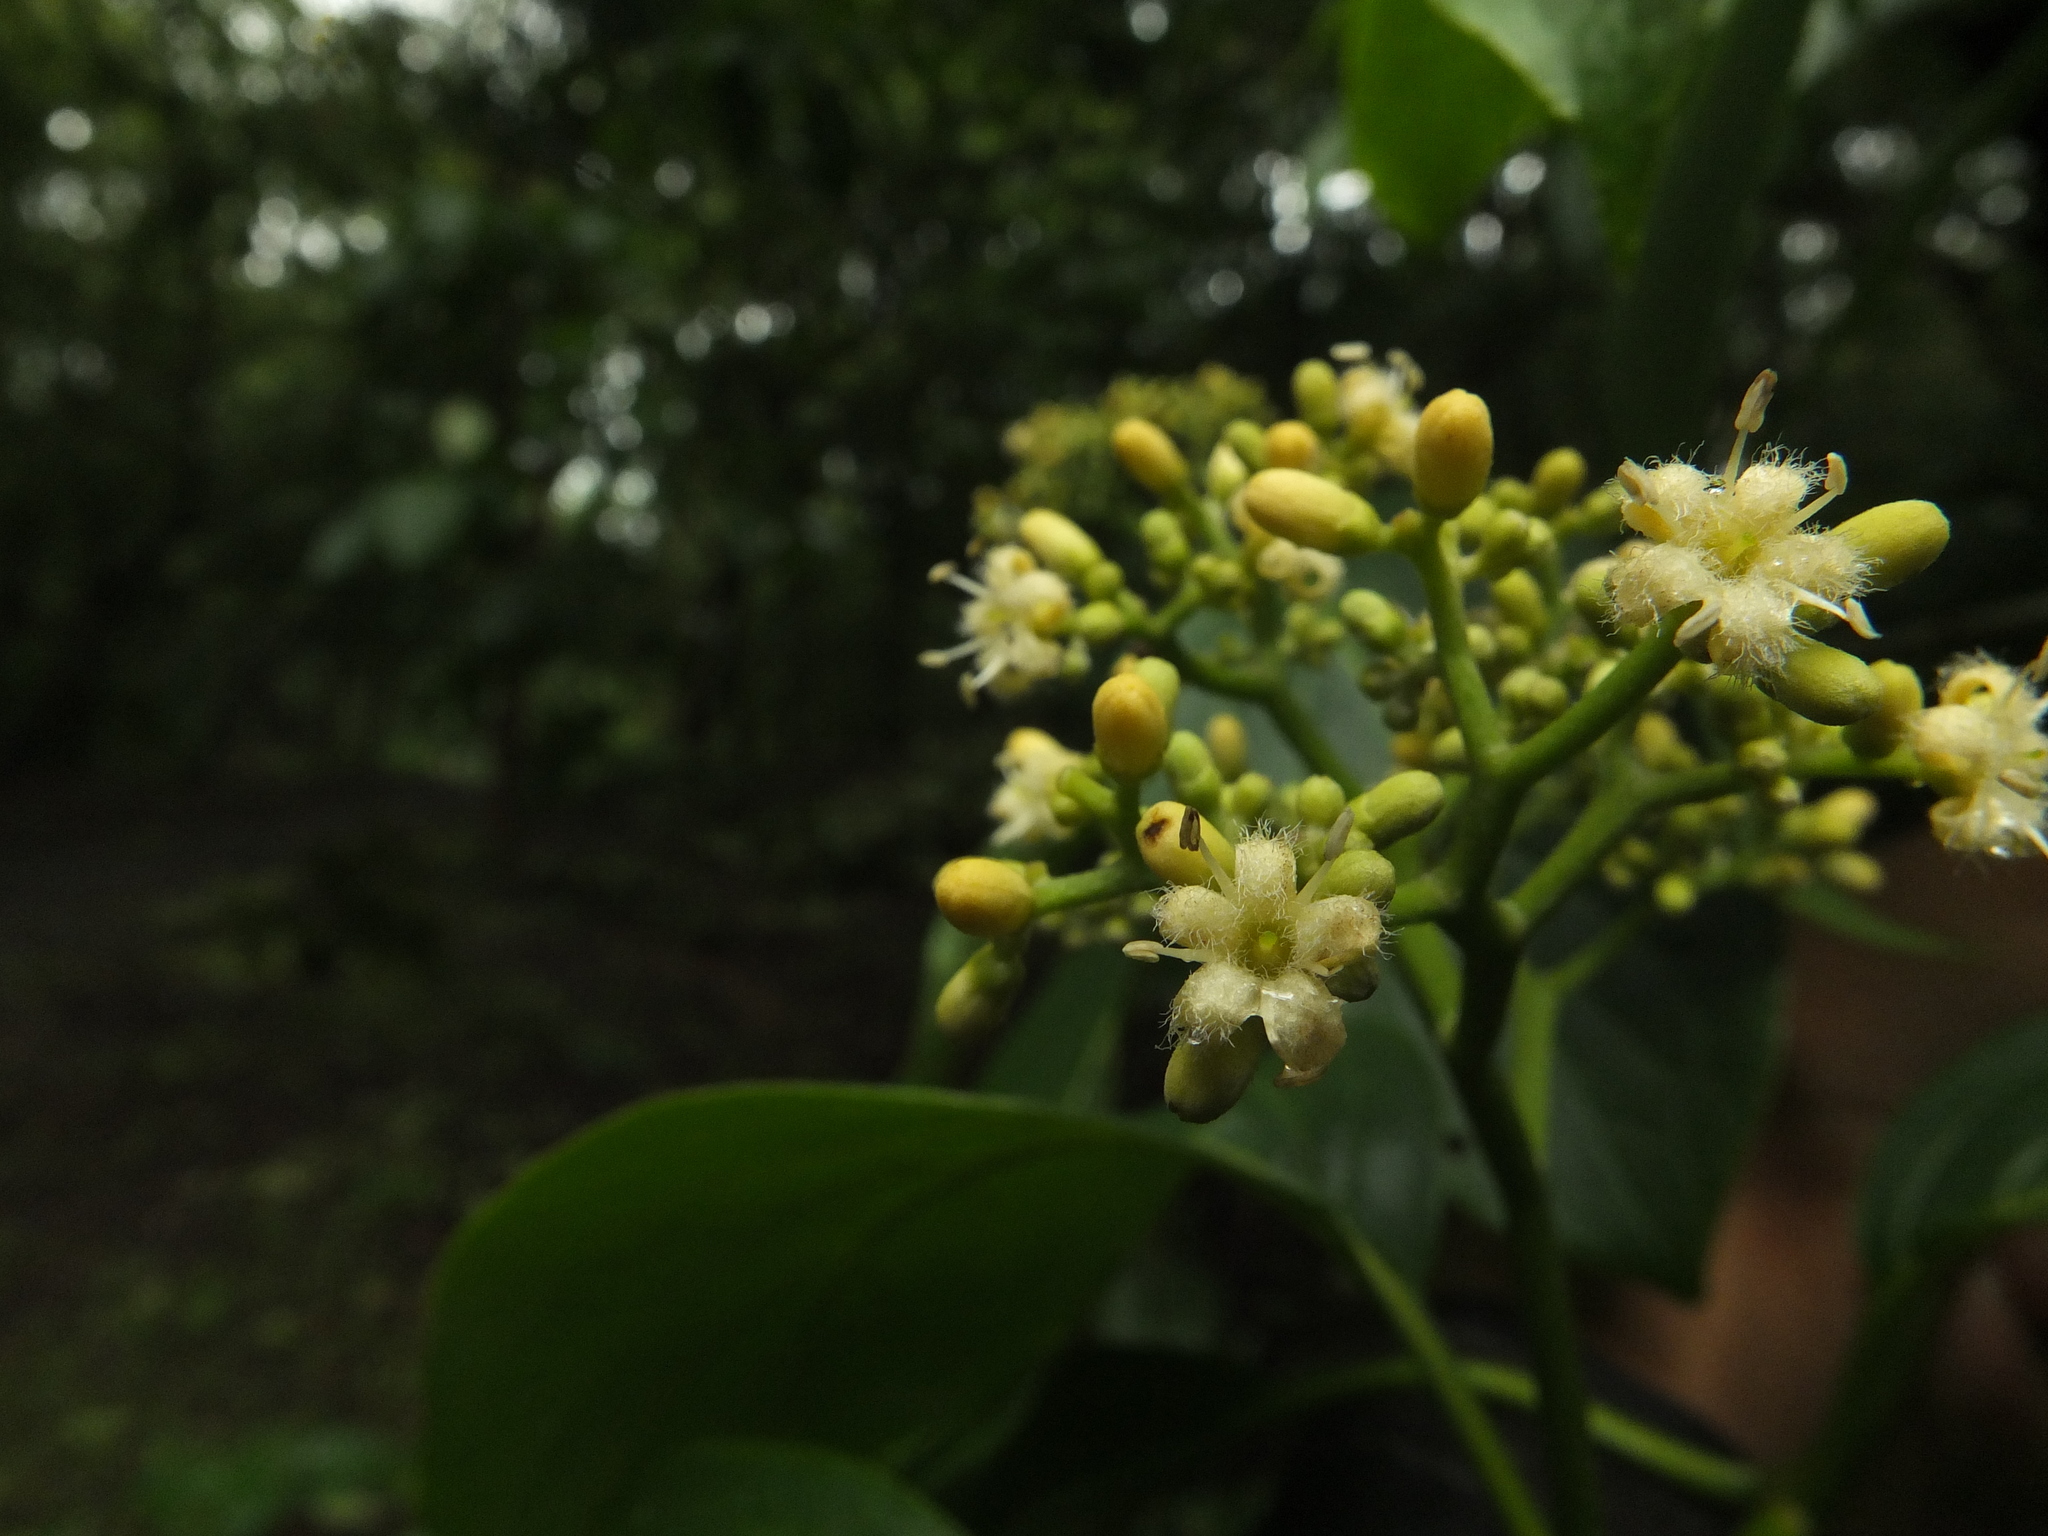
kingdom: Plantae
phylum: Tracheophyta
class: Magnoliopsida
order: Icacinales
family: Icacinaceae
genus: Nothapodytes
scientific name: Nothapodytes nimmoniana
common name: Nothapodytes
